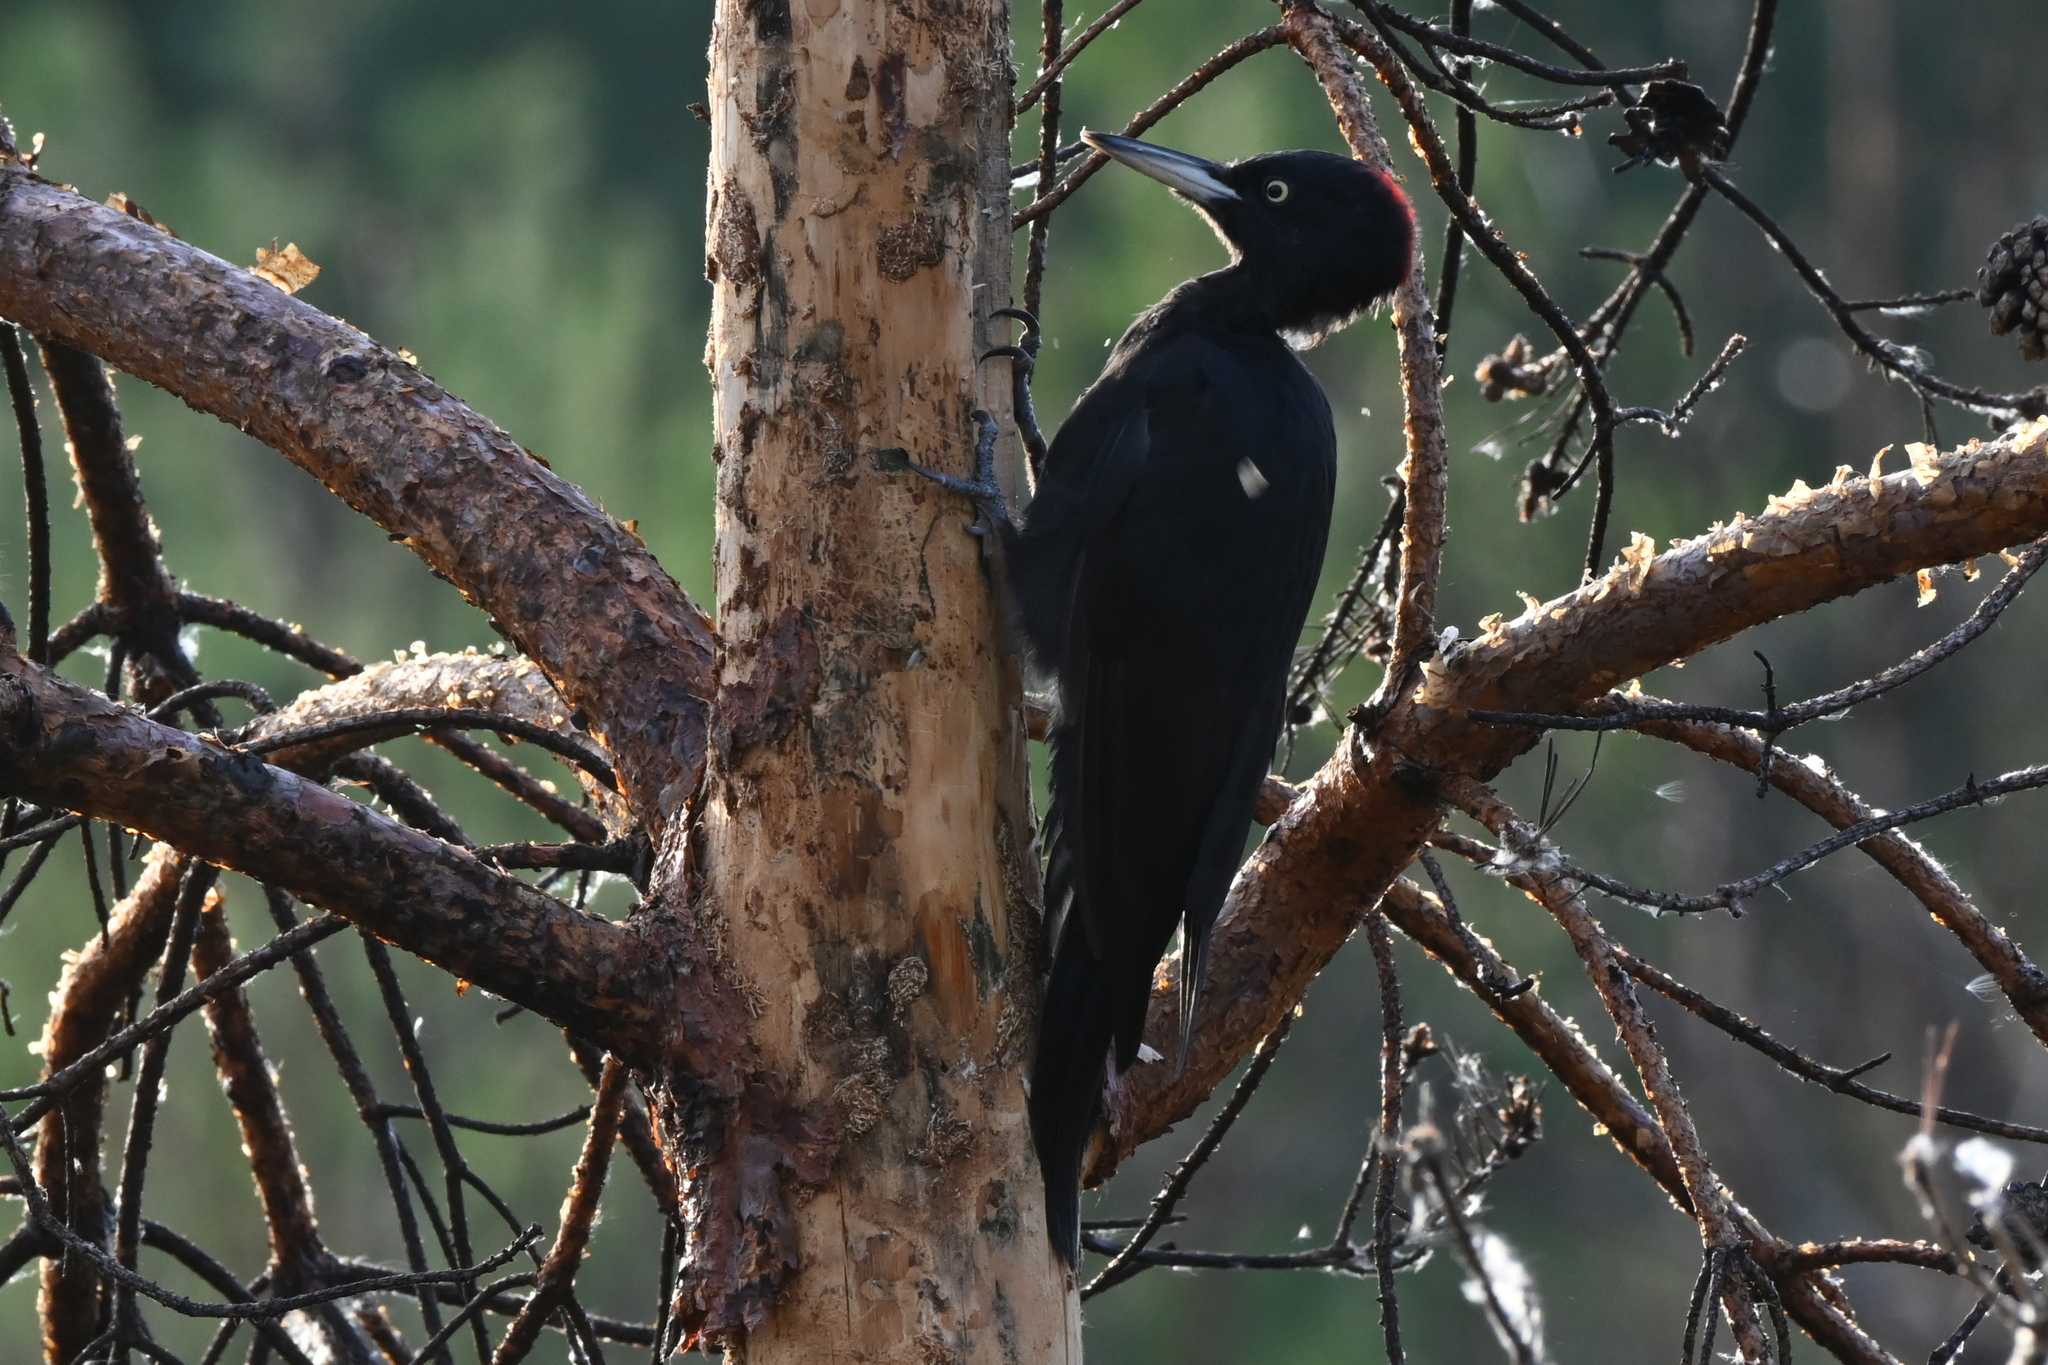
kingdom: Animalia
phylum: Chordata
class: Aves
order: Piciformes
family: Picidae
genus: Dryocopus
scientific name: Dryocopus martius
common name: Black woodpecker
